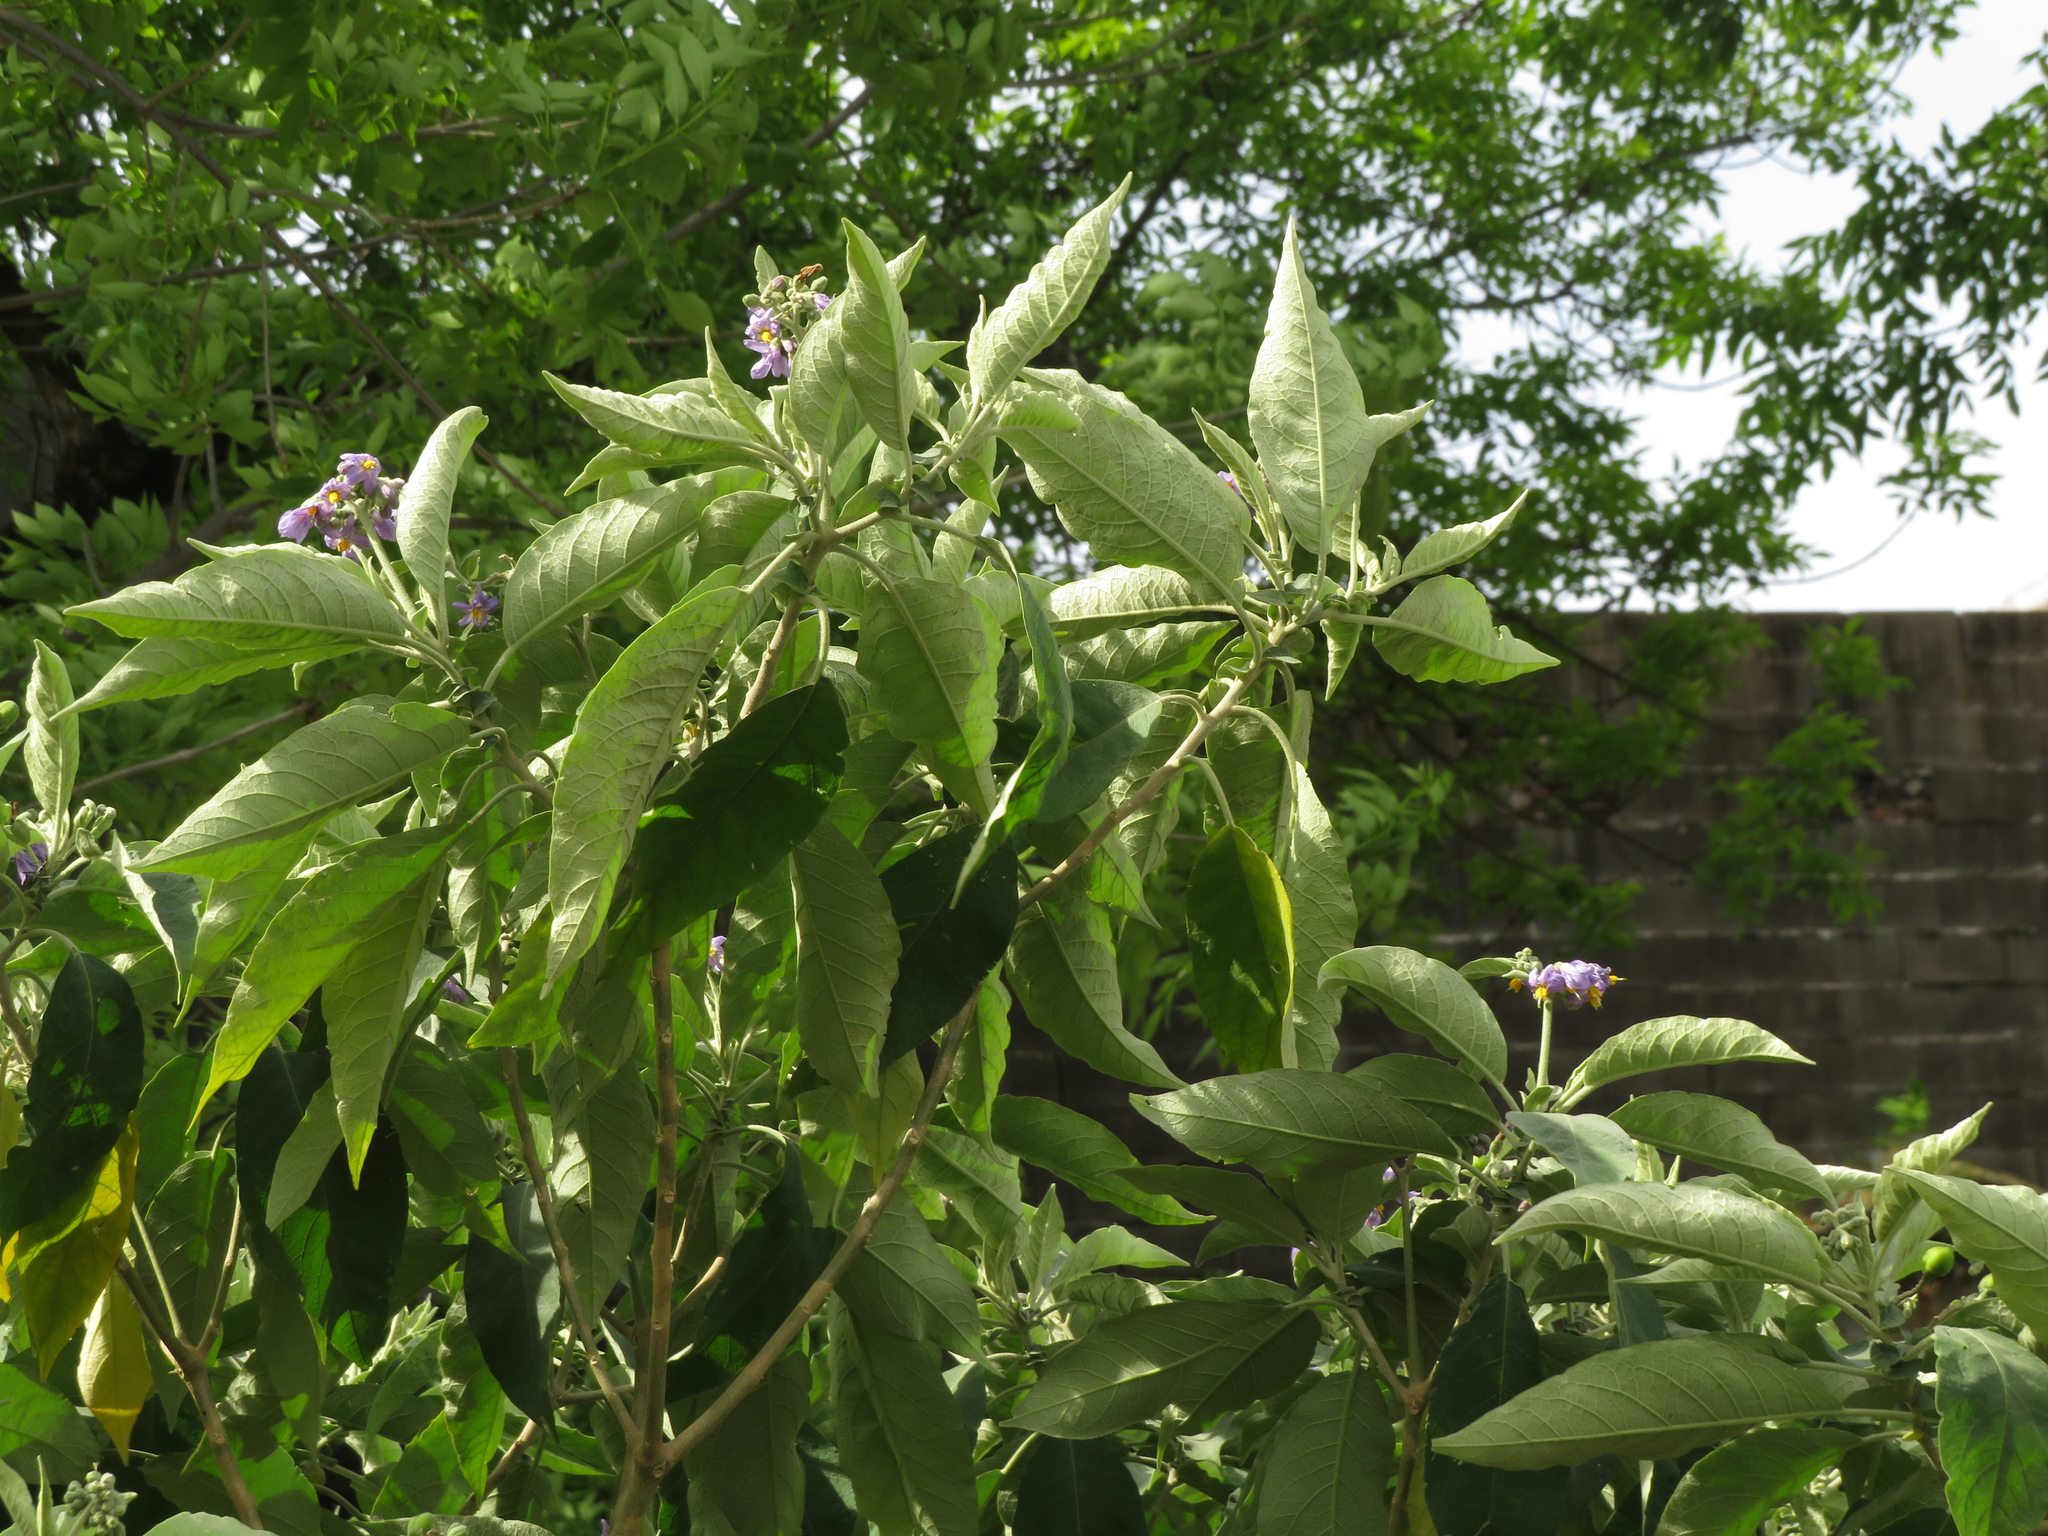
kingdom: Plantae
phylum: Tracheophyta
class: Magnoliopsida
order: Solanales
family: Solanaceae
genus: Solanum
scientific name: Solanum granulosoleprosum
